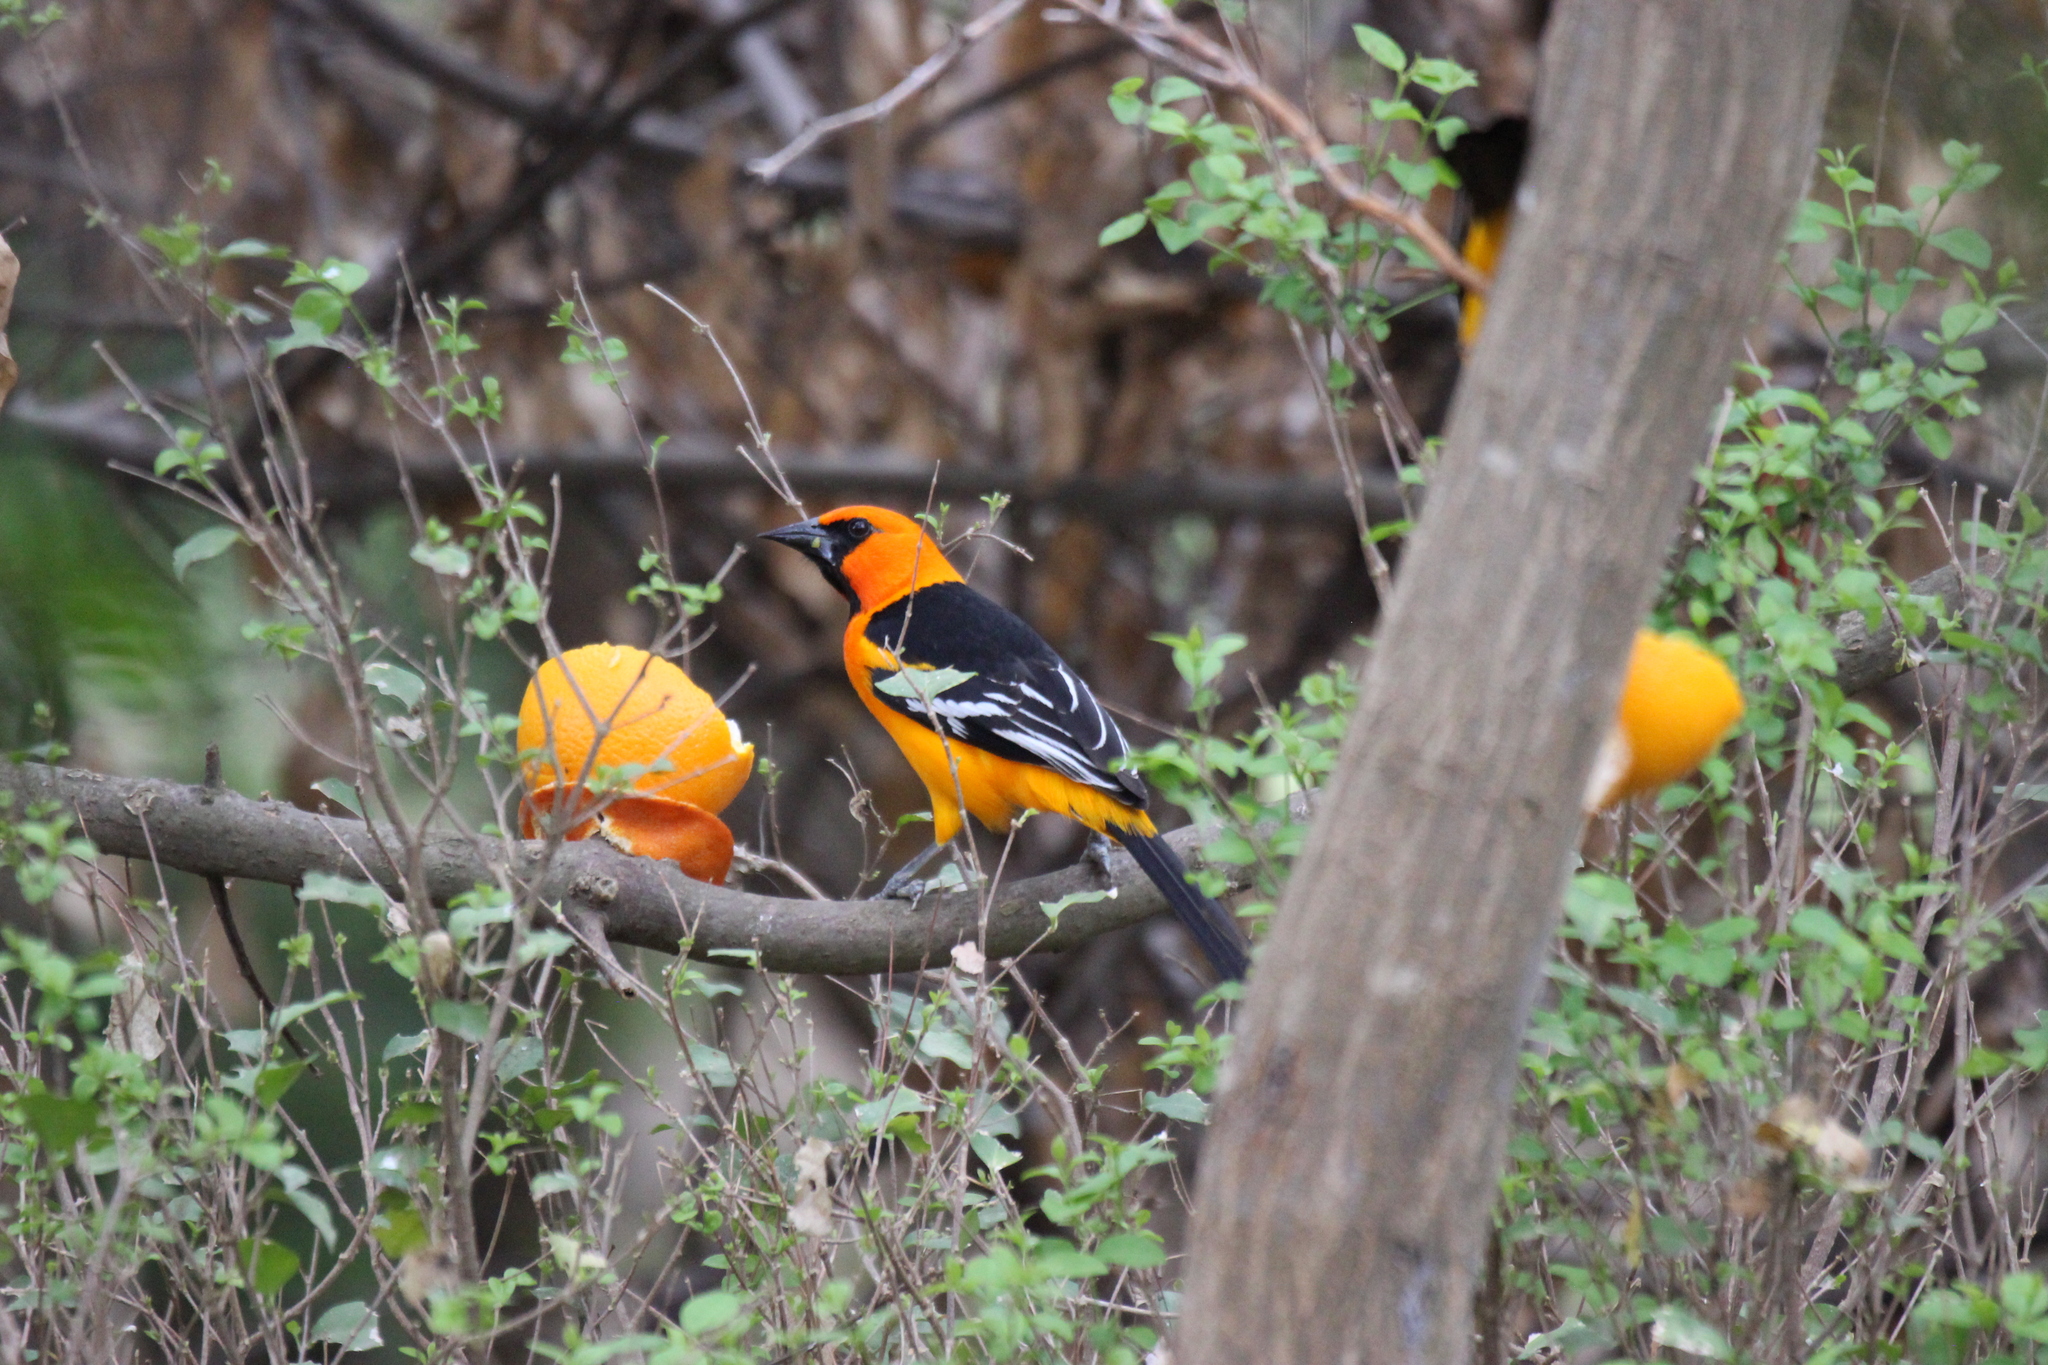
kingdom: Animalia
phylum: Chordata
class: Aves
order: Passeriformes
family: Icteridae
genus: Icterus
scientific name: Icterus gularis
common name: Altamira oriole
